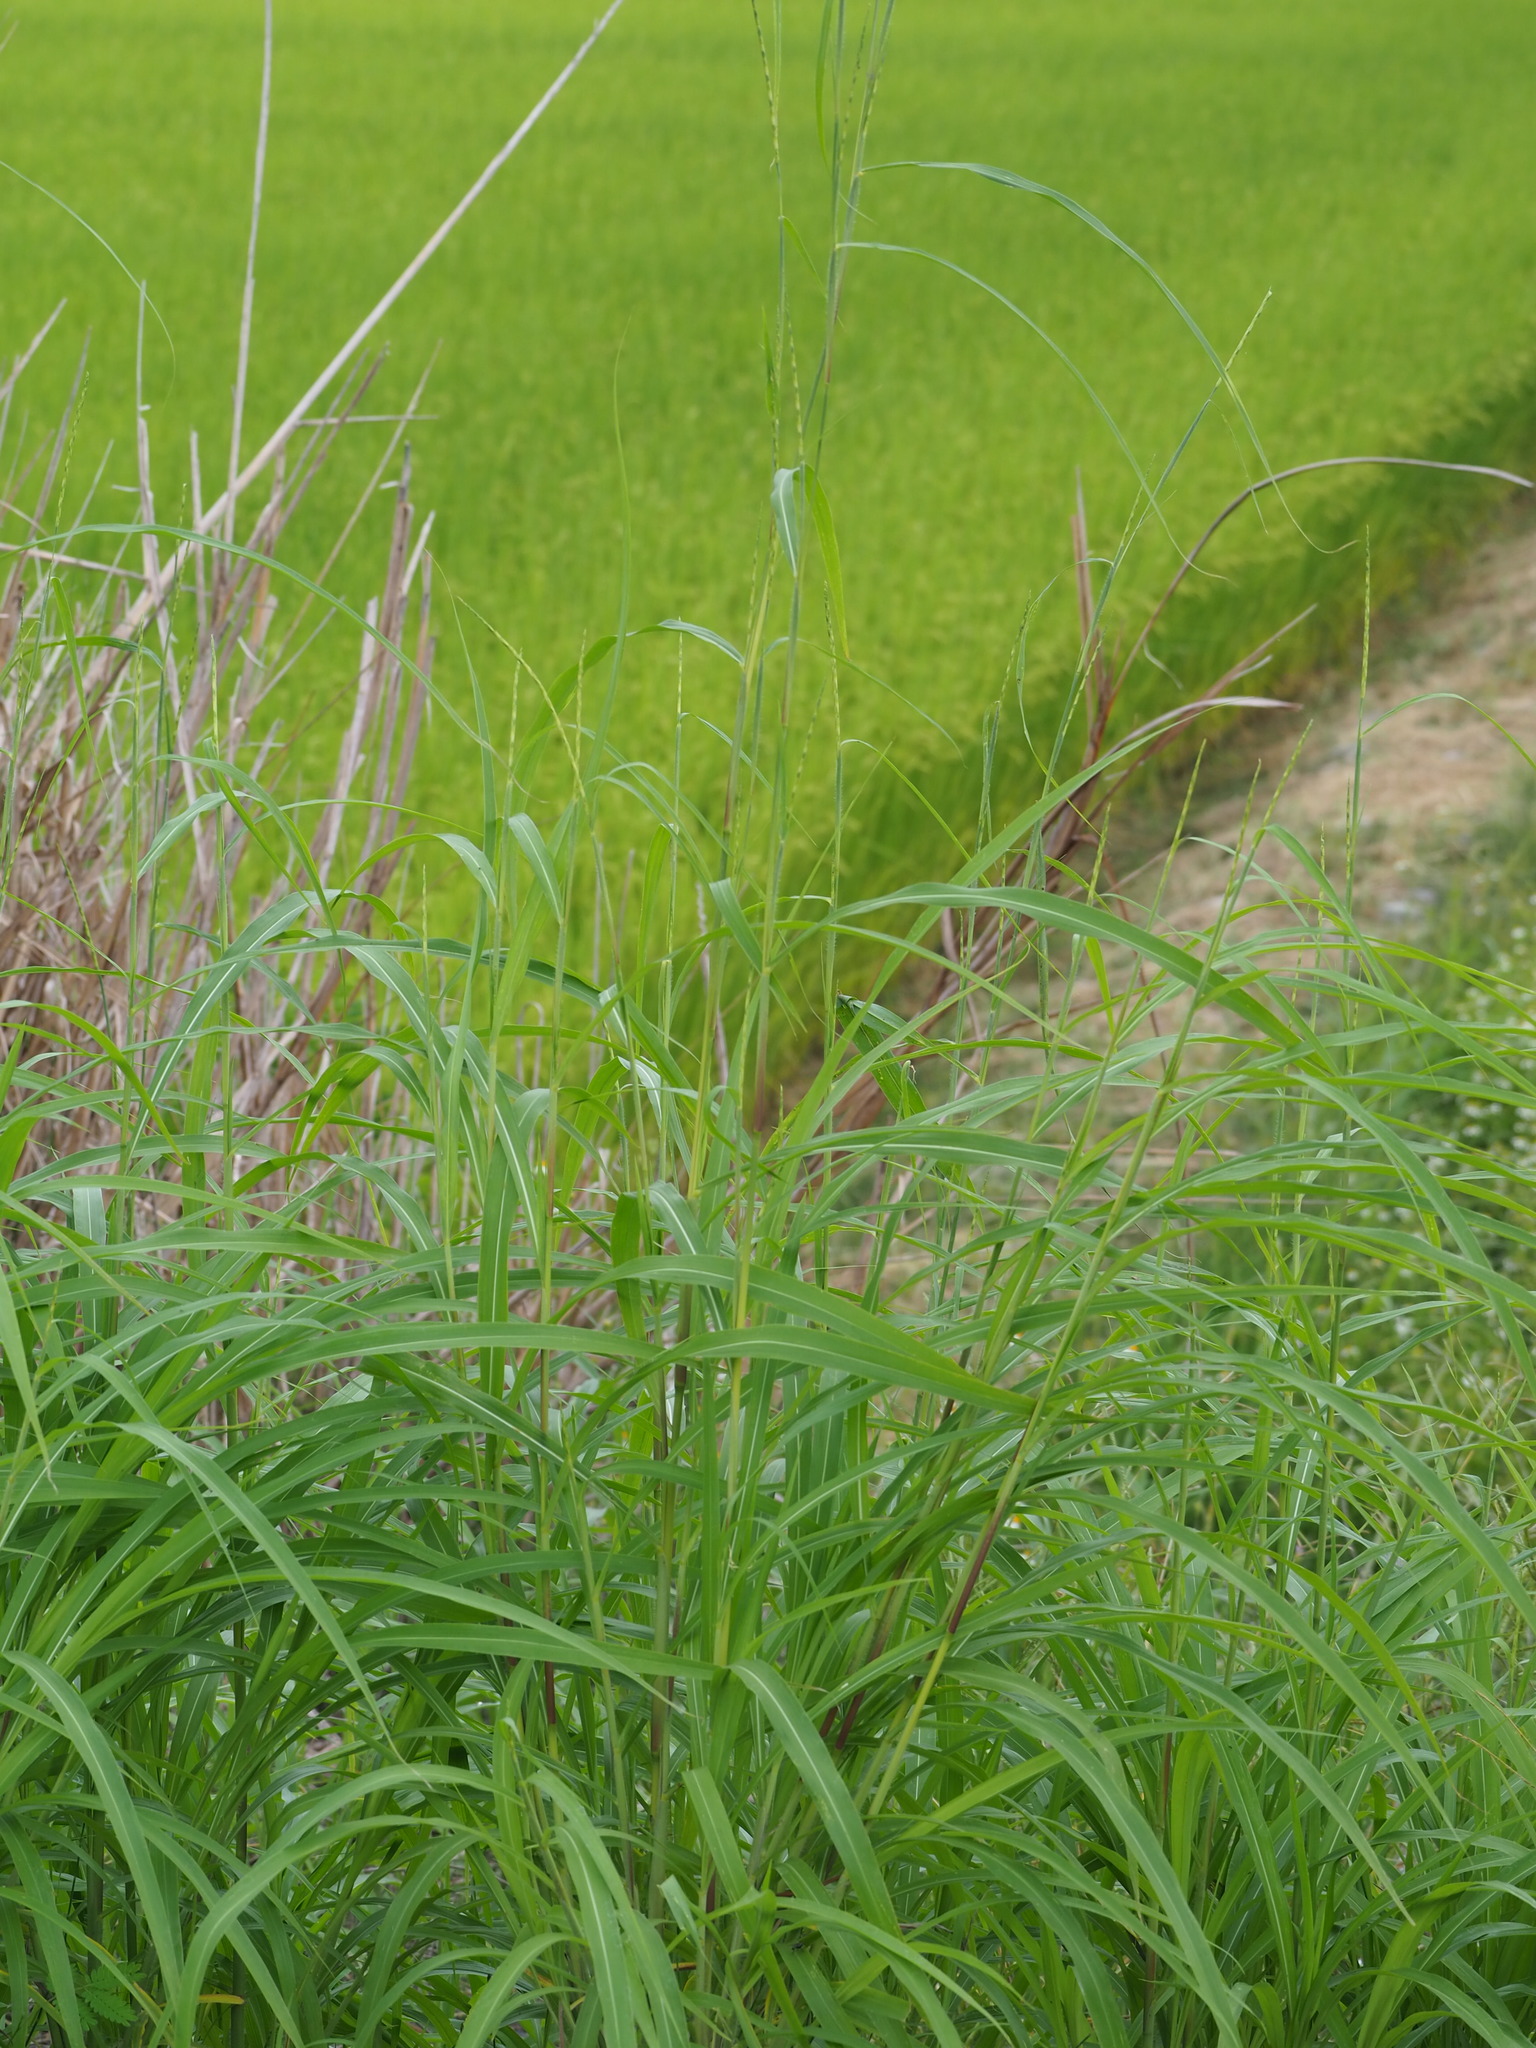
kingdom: Plantae
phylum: Tracheophyta
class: Liliopsida
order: Poales
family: Poaceae
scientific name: Poaceae
